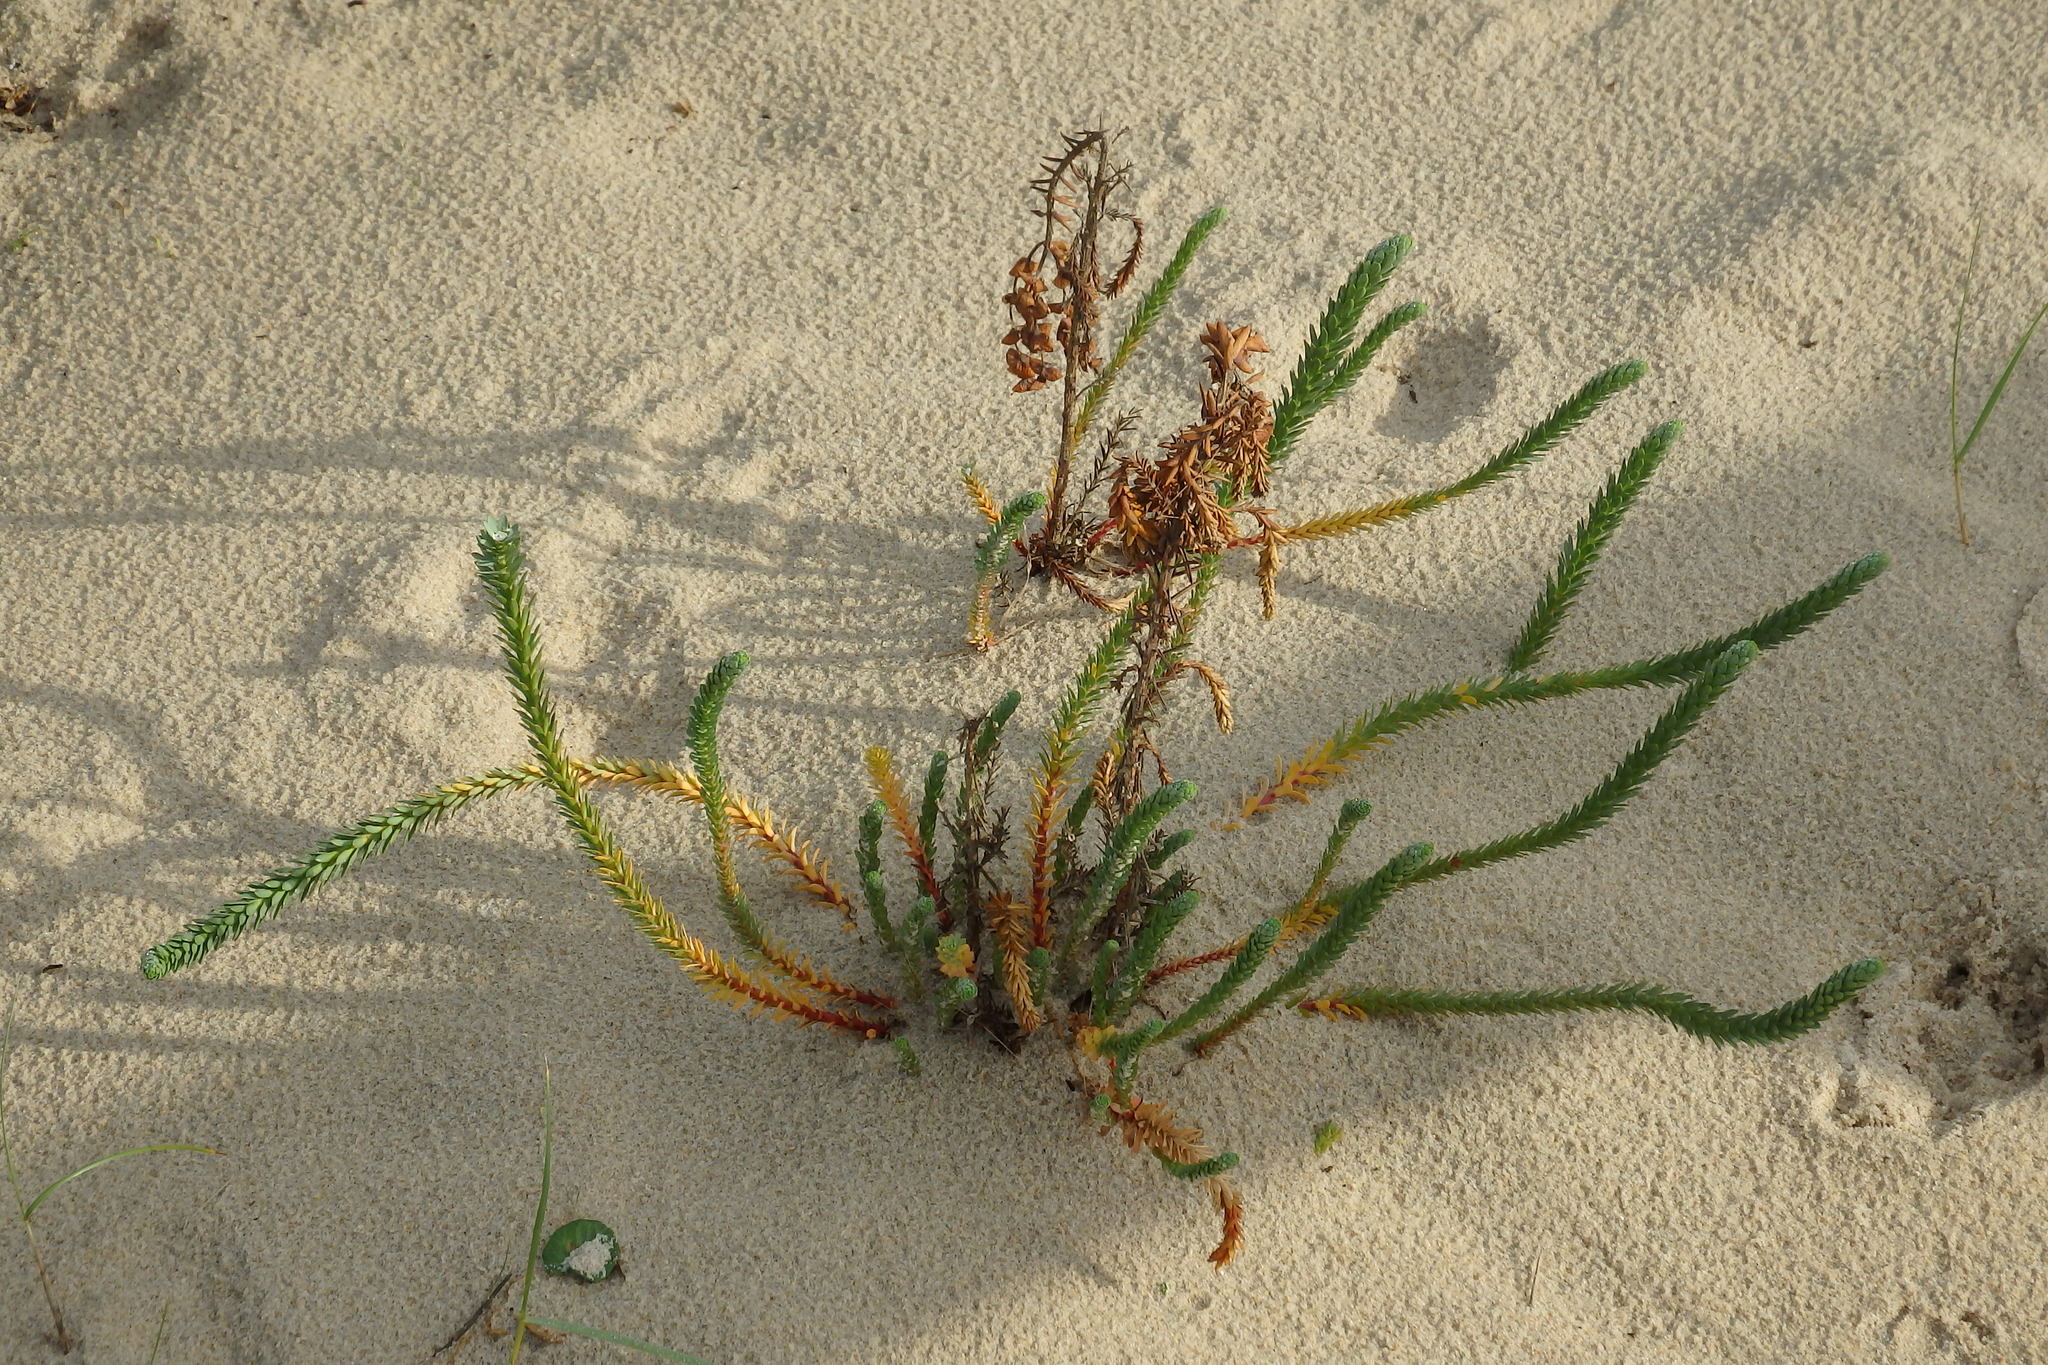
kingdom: Plantae
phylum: Tracheophyta
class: Magnoliopsida
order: Malpighiales
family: Euphorbiaceae
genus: Euphorbia
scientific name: Euphorbia paralias
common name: Sea spurge
